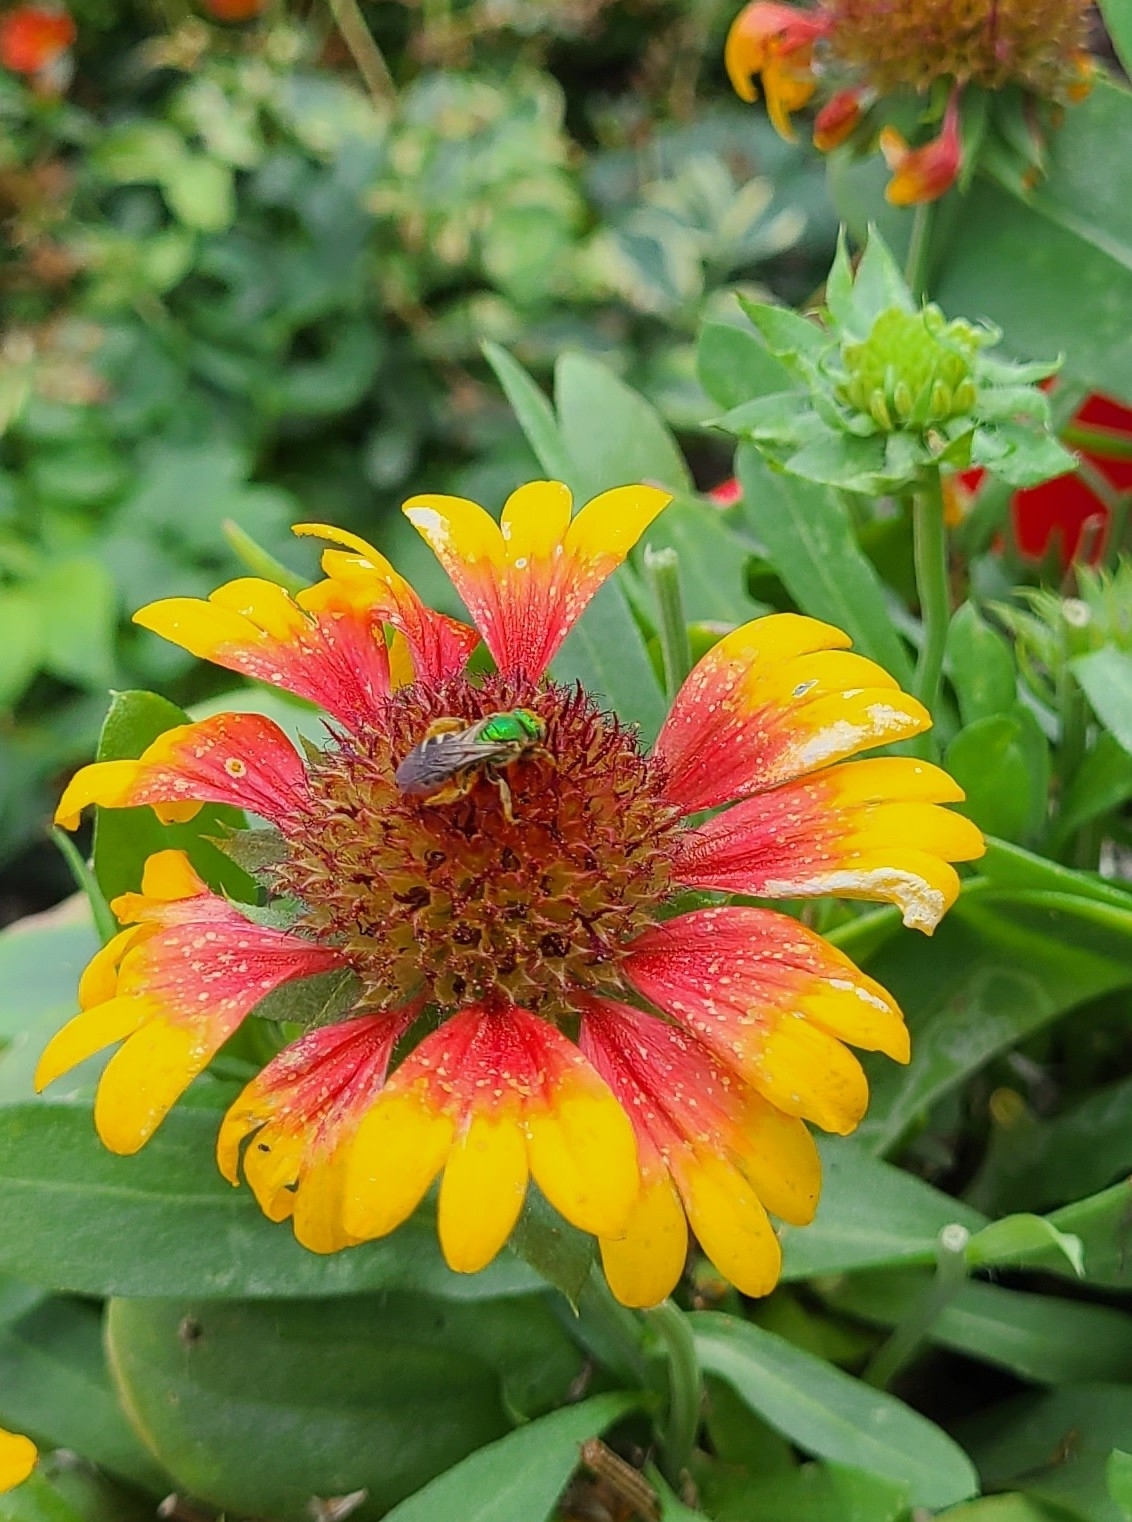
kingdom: Animalia
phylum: Arthropoda
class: Insecta
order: Hymenoptera
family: Halictidae
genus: Agapostemon
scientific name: Agapostemon virescens
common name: Bicolored striped sweat bee
